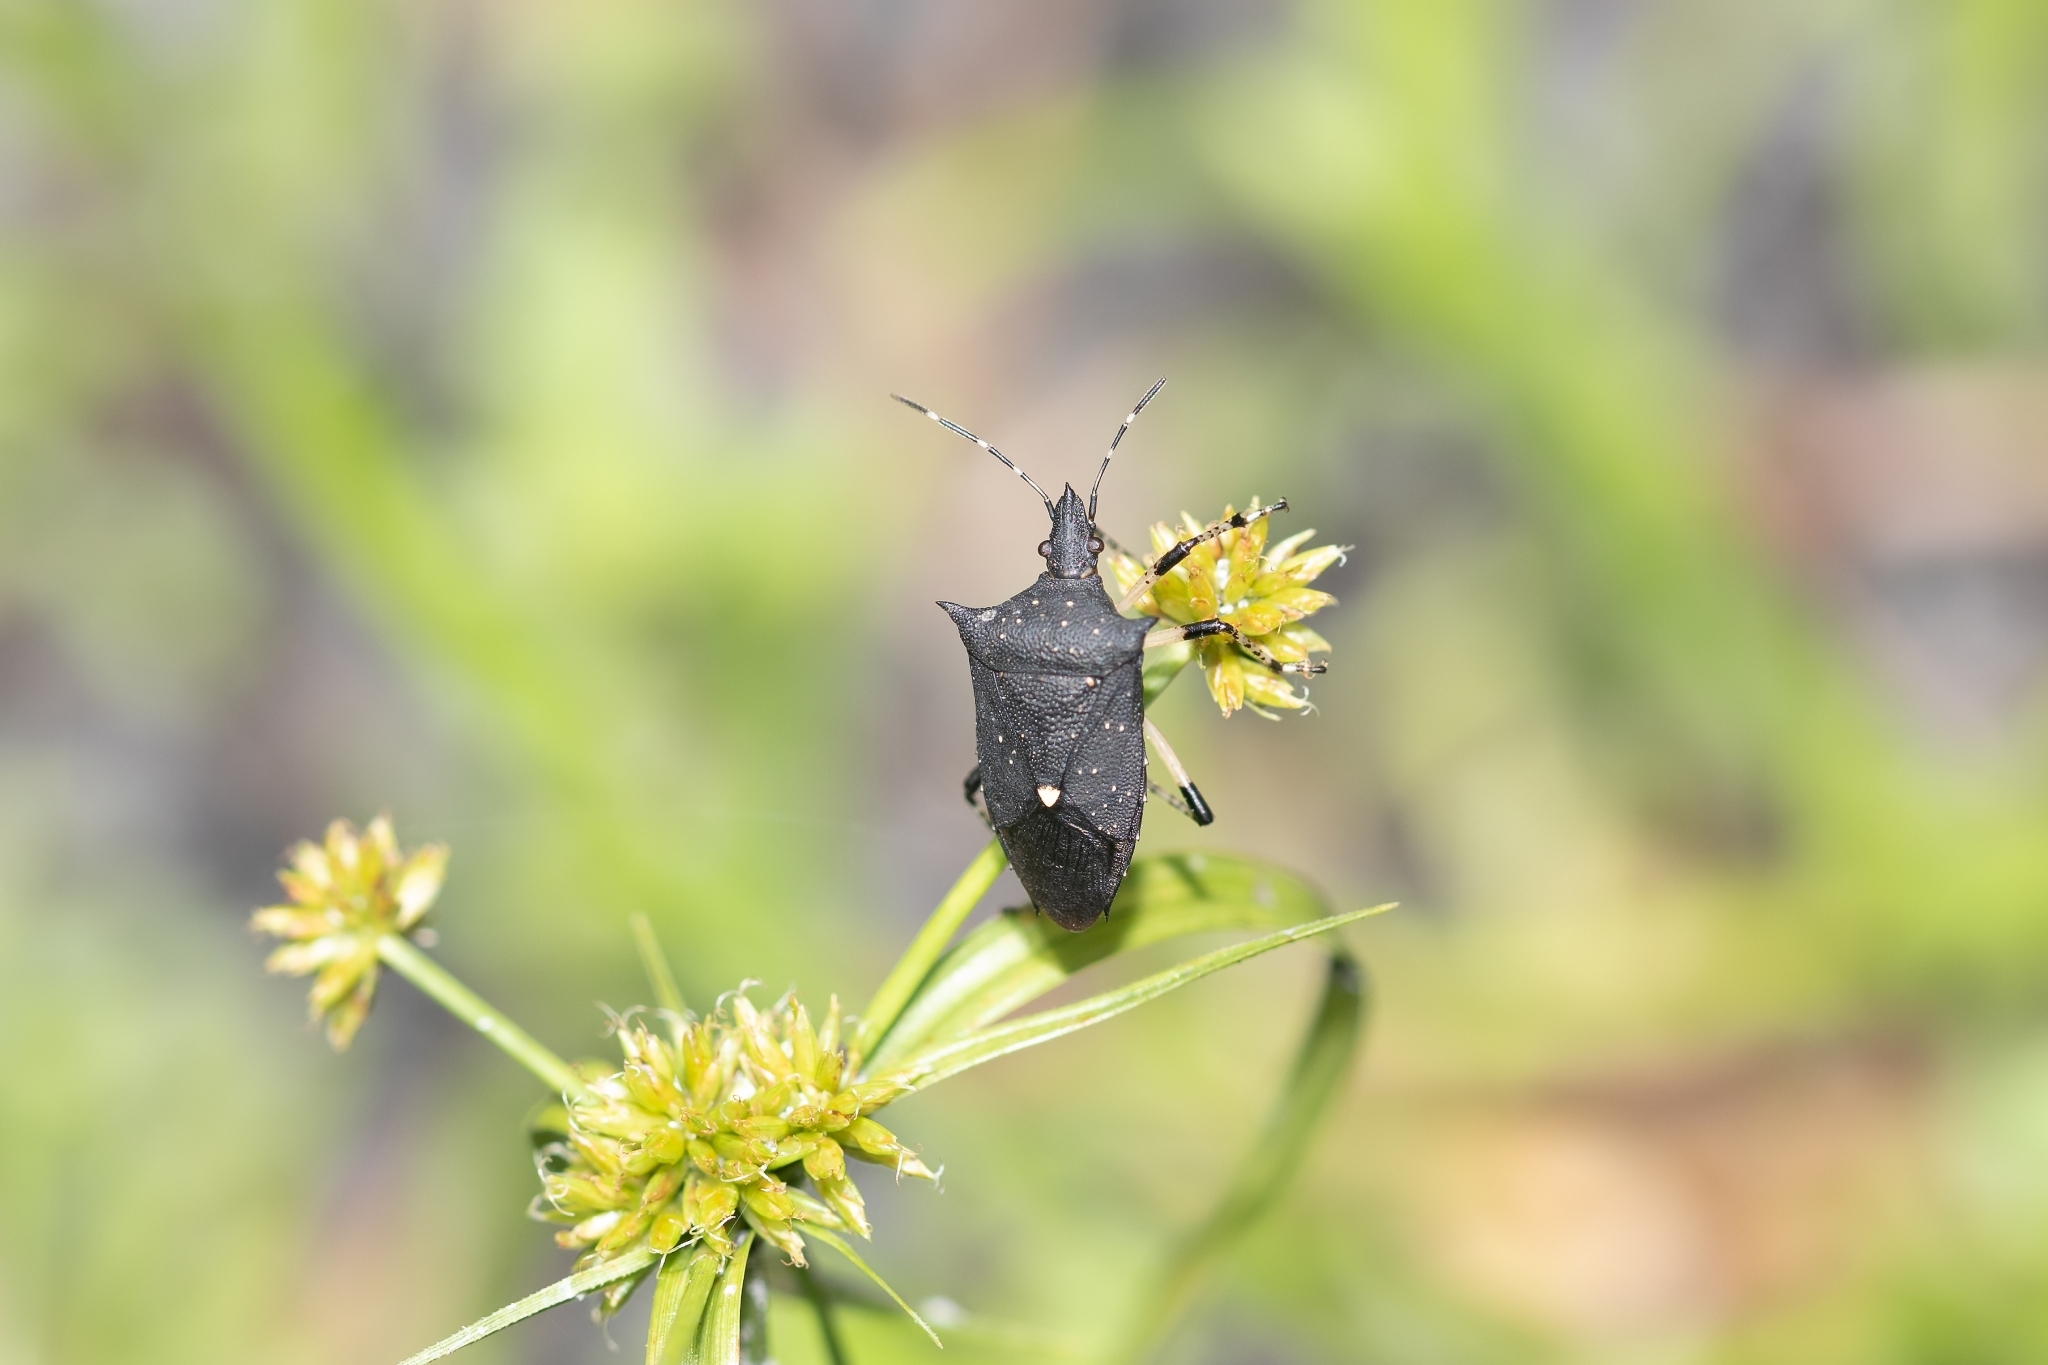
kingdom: Animalia
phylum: Arthropoda
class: Insecta
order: Hemiptera
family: Pentatomidae
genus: Proxys
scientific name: Proxys punctulatus
